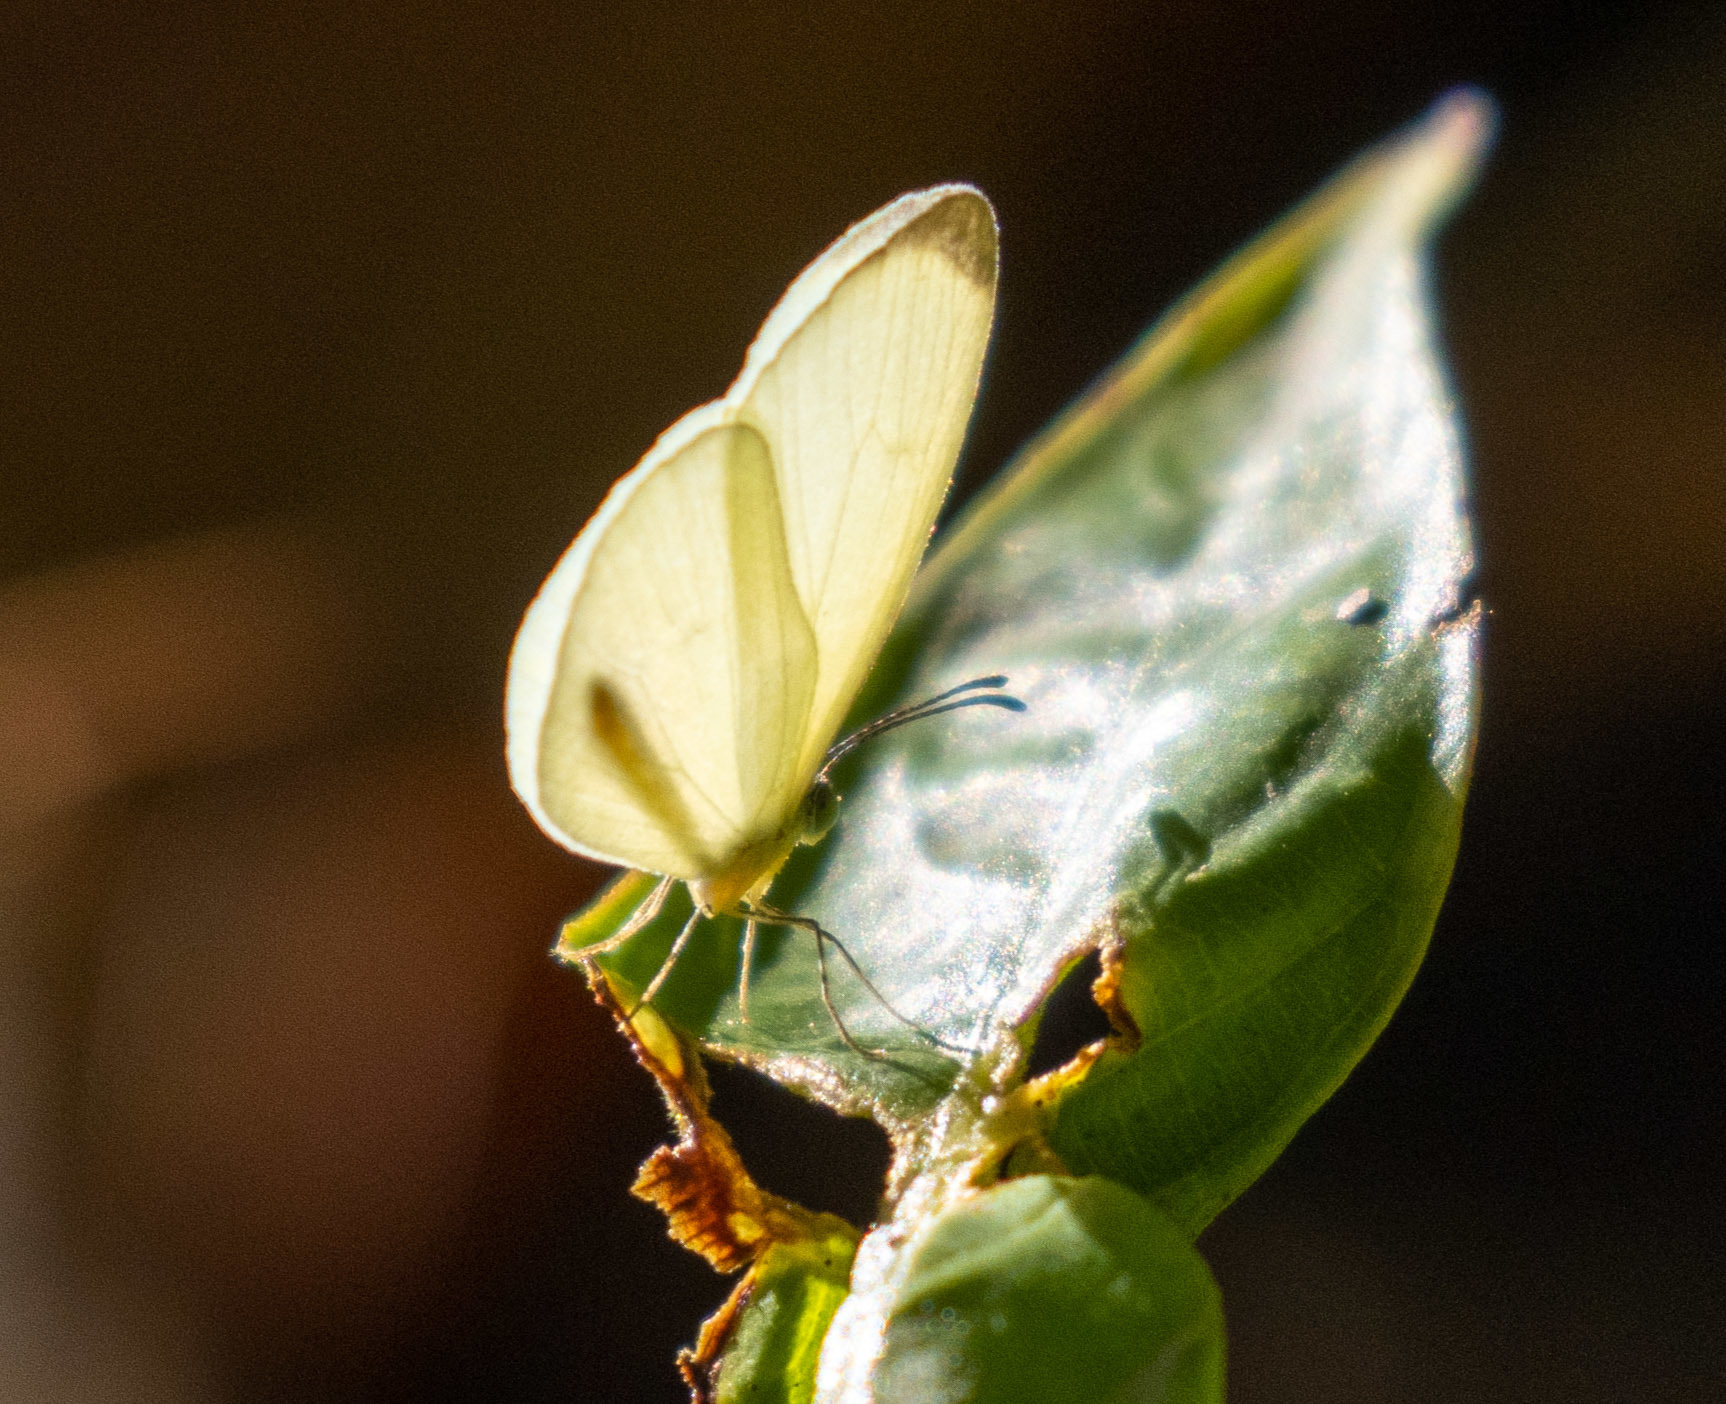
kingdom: Animalia
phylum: Arthropoda
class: Insecta
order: Lepidoptera
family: Pieridae
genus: Leucidia
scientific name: Leucidia elvina
